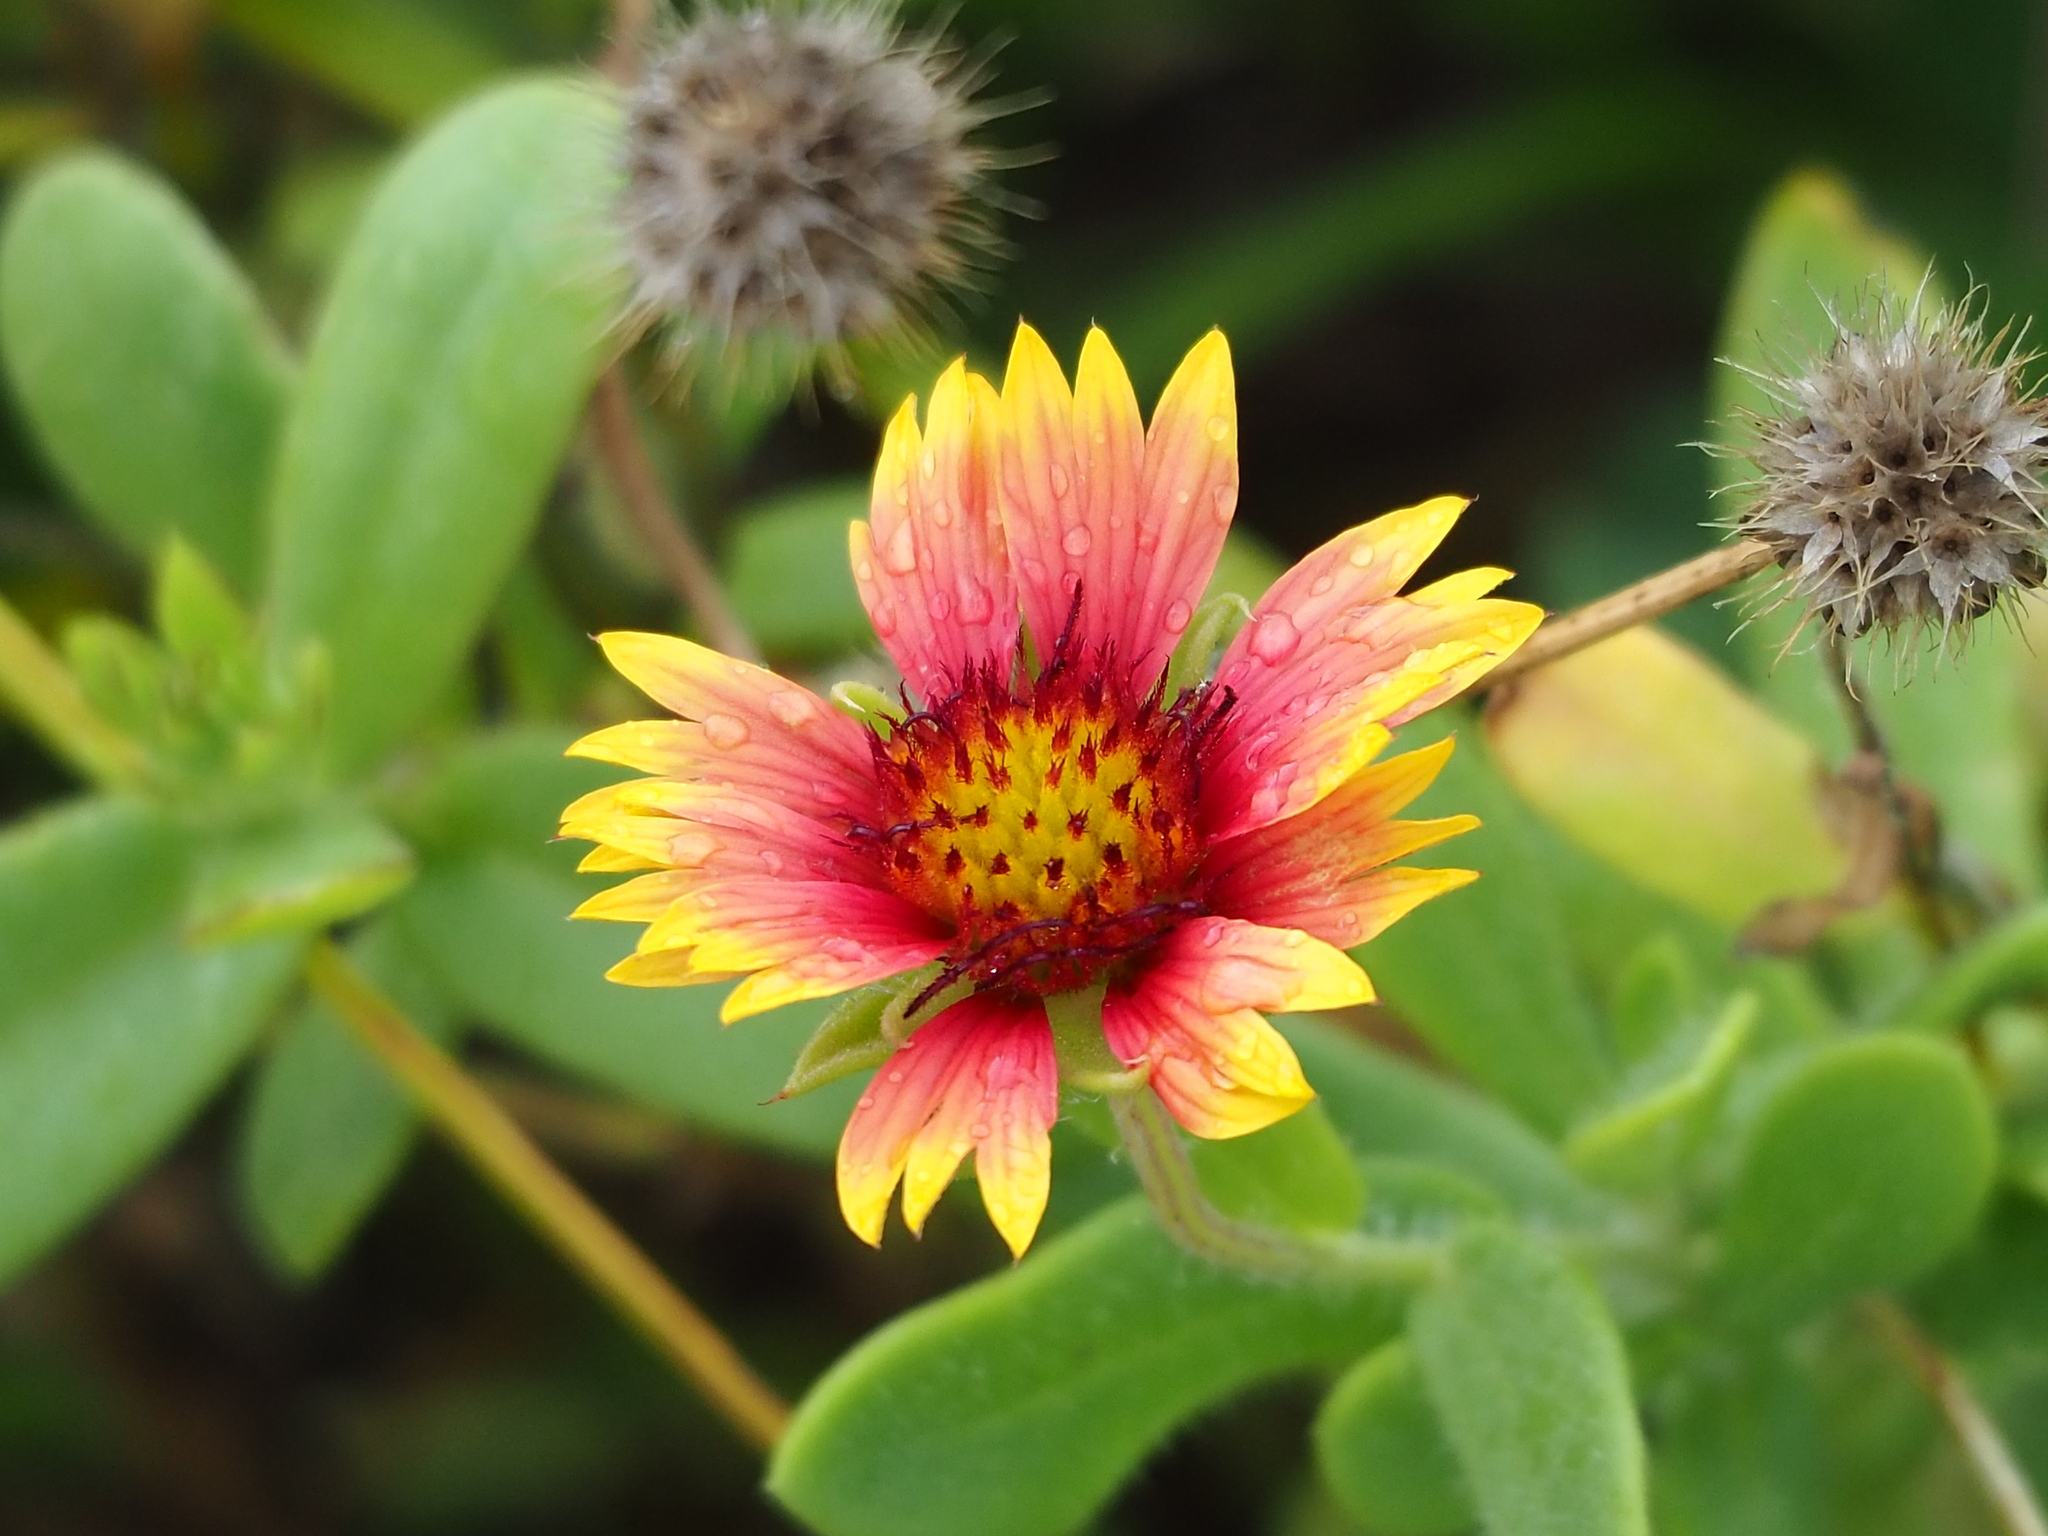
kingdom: Plantae
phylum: Tracheophyta
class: Magnoliopsida
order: Asterales
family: Asteraceae
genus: Gaillardia
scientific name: Gaillardia pulchella
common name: Firewheel
